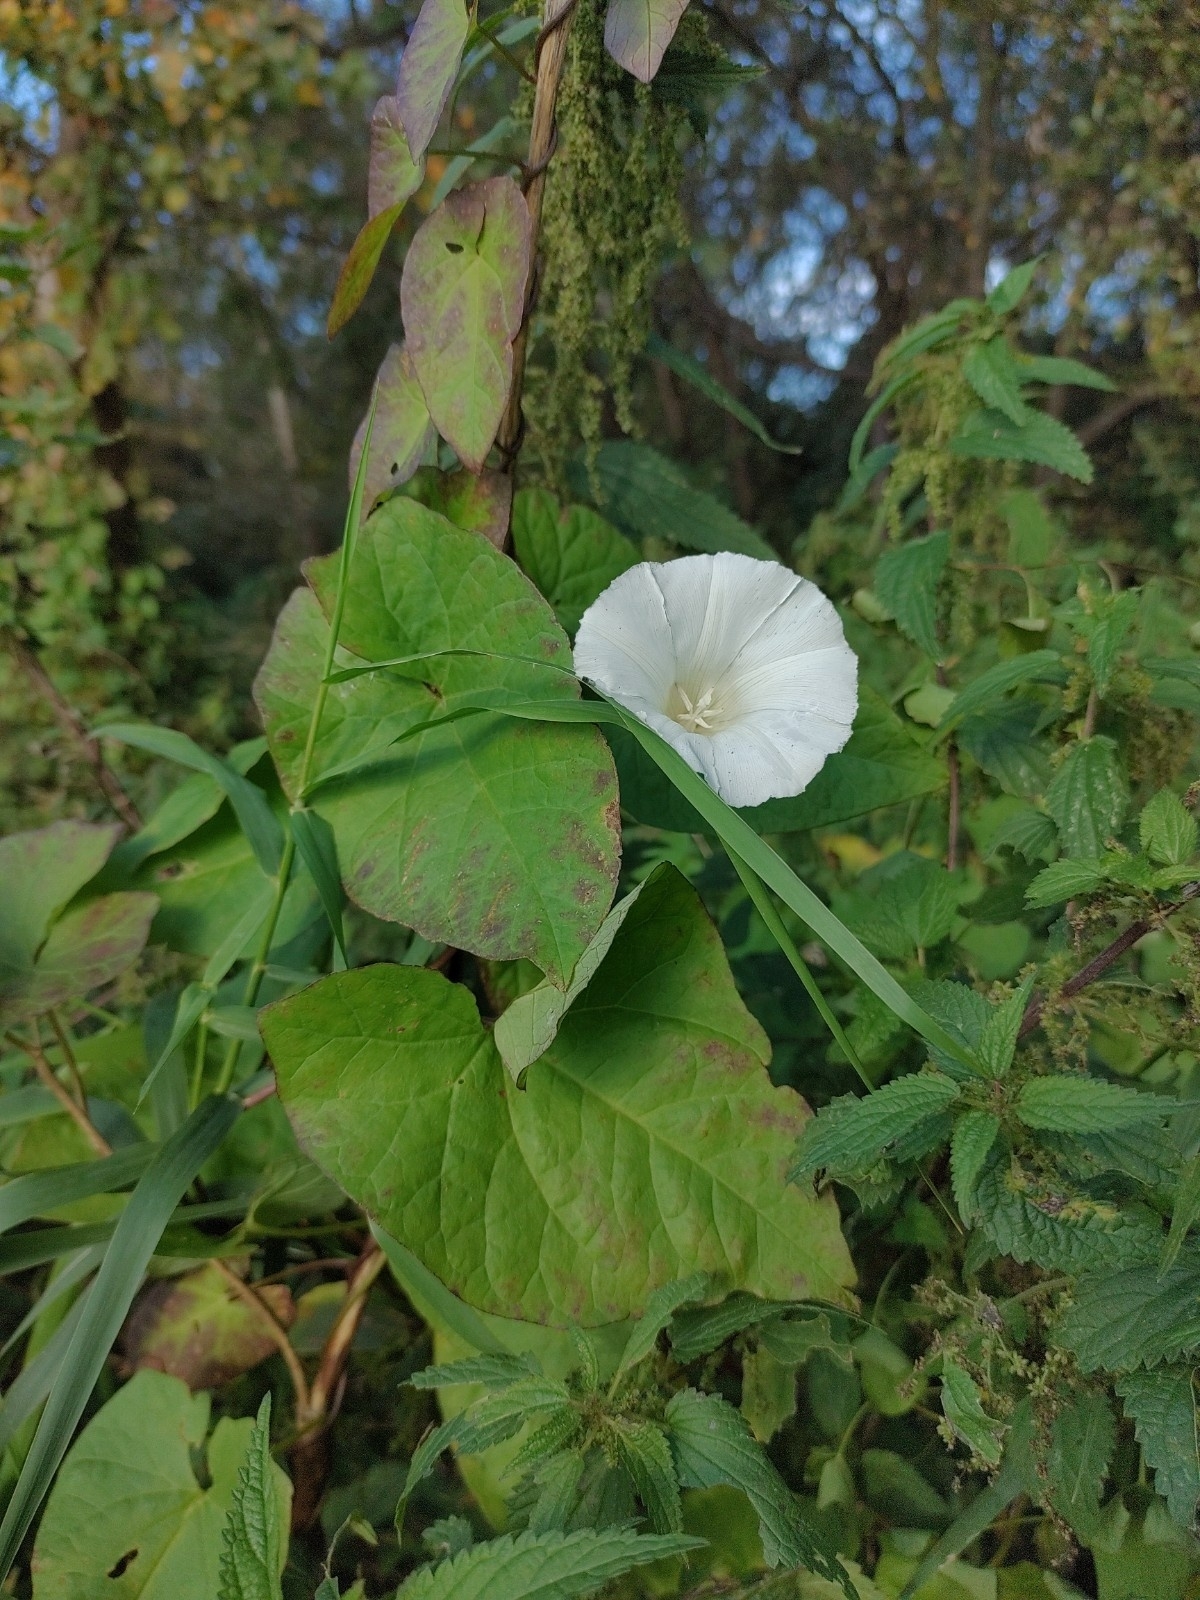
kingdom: Plantae
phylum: Tracheophyta
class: Magnoliopsida
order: Solanales
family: Convolvulaceae
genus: Calystegia
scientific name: Calystegia sepium
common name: Hedge bindweed
